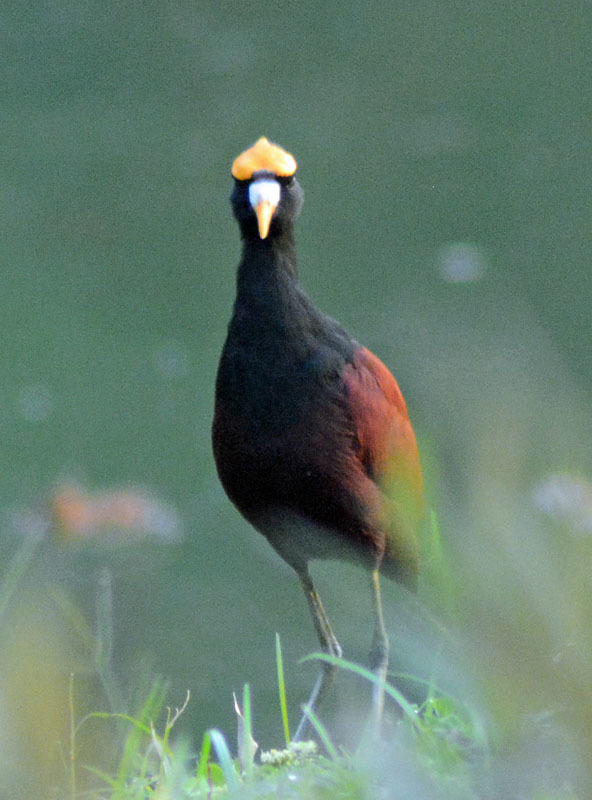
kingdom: Animalia
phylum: Chordata
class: Aves
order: Charadriiformes
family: Jacanidae
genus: Jacana
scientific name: Jacana spinosa
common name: Northern jacana
